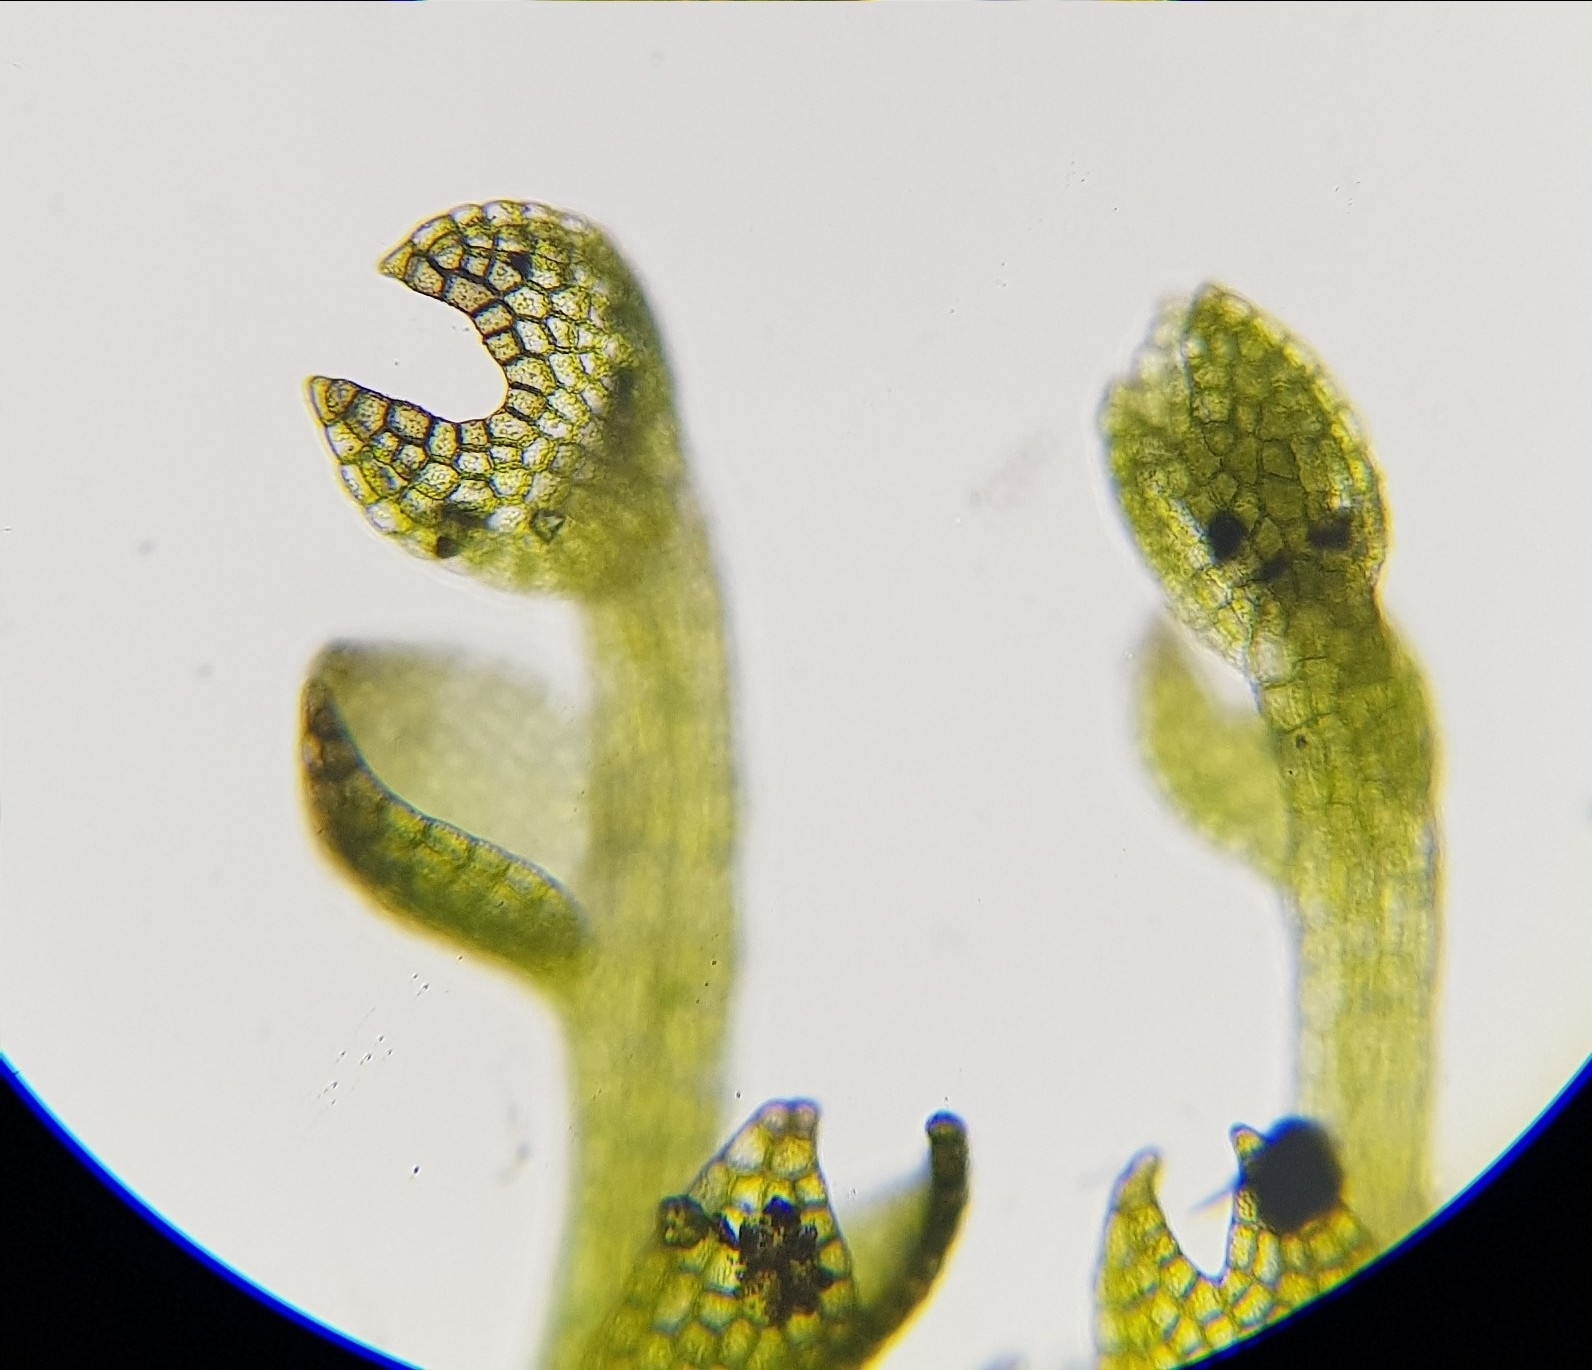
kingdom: Plantae
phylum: Marchantiophyta
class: Jungermanniopsida
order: Jungermanniales
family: Cephaloziaceae
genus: Fuscocephaloziopsis
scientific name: Fuscocephaloziopsis lunulifolia
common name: Moon-leaved pincerwort
